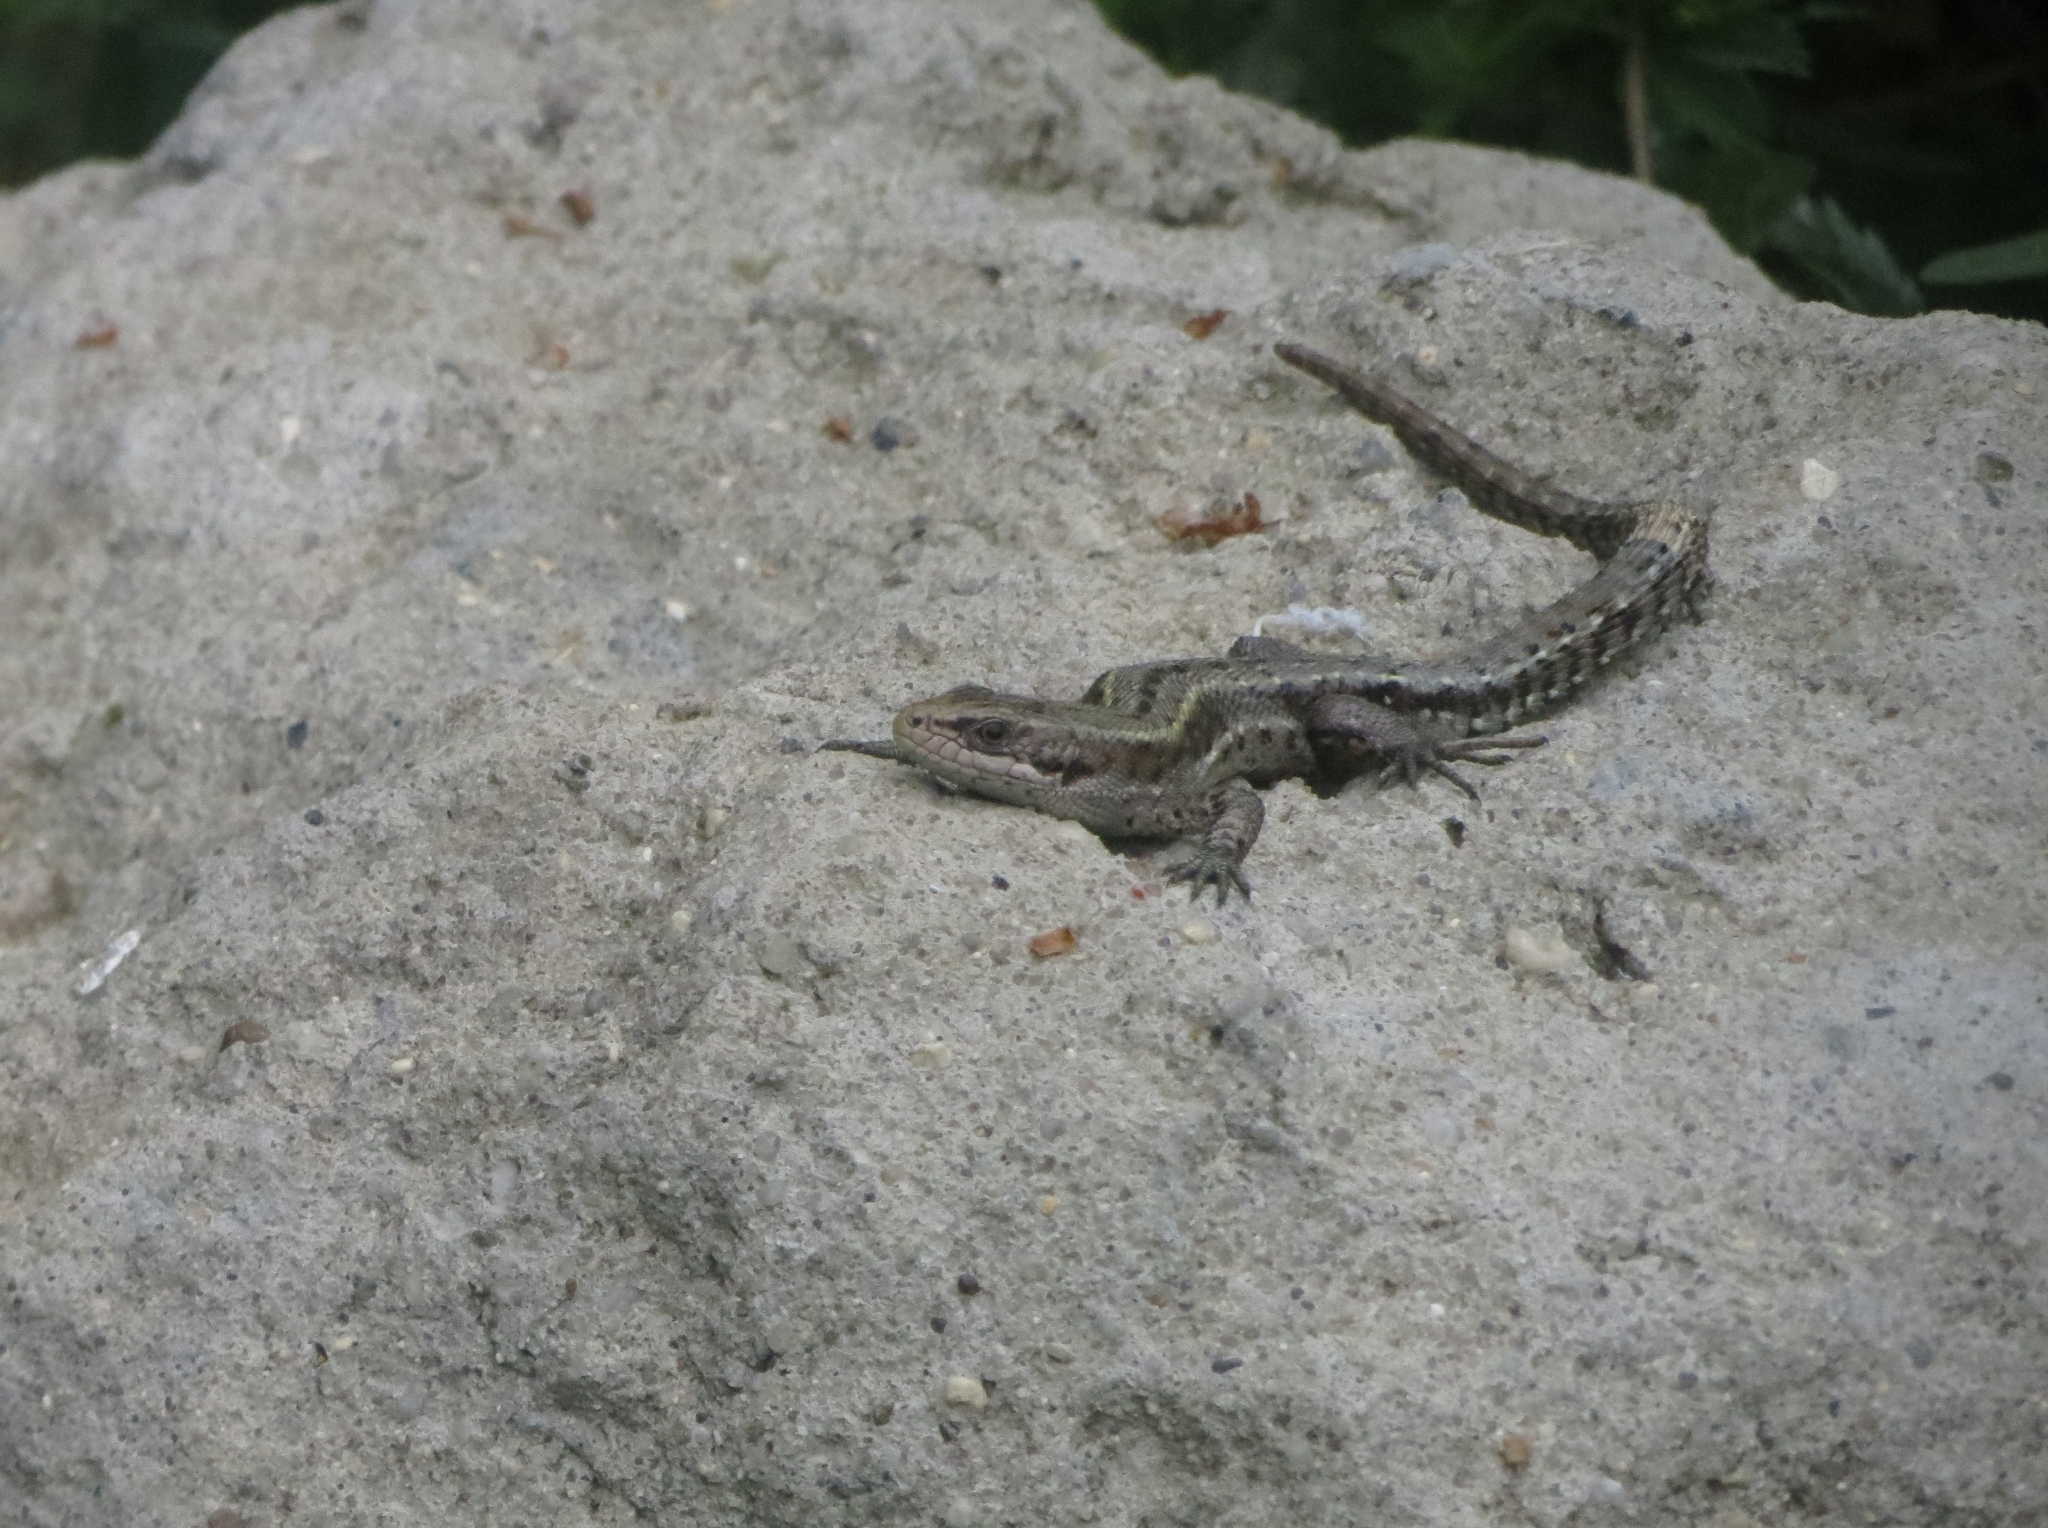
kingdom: Animalia
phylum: Chordata
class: Squamata
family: Lacertidae
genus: Zootoca
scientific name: Zootoca vivipara
